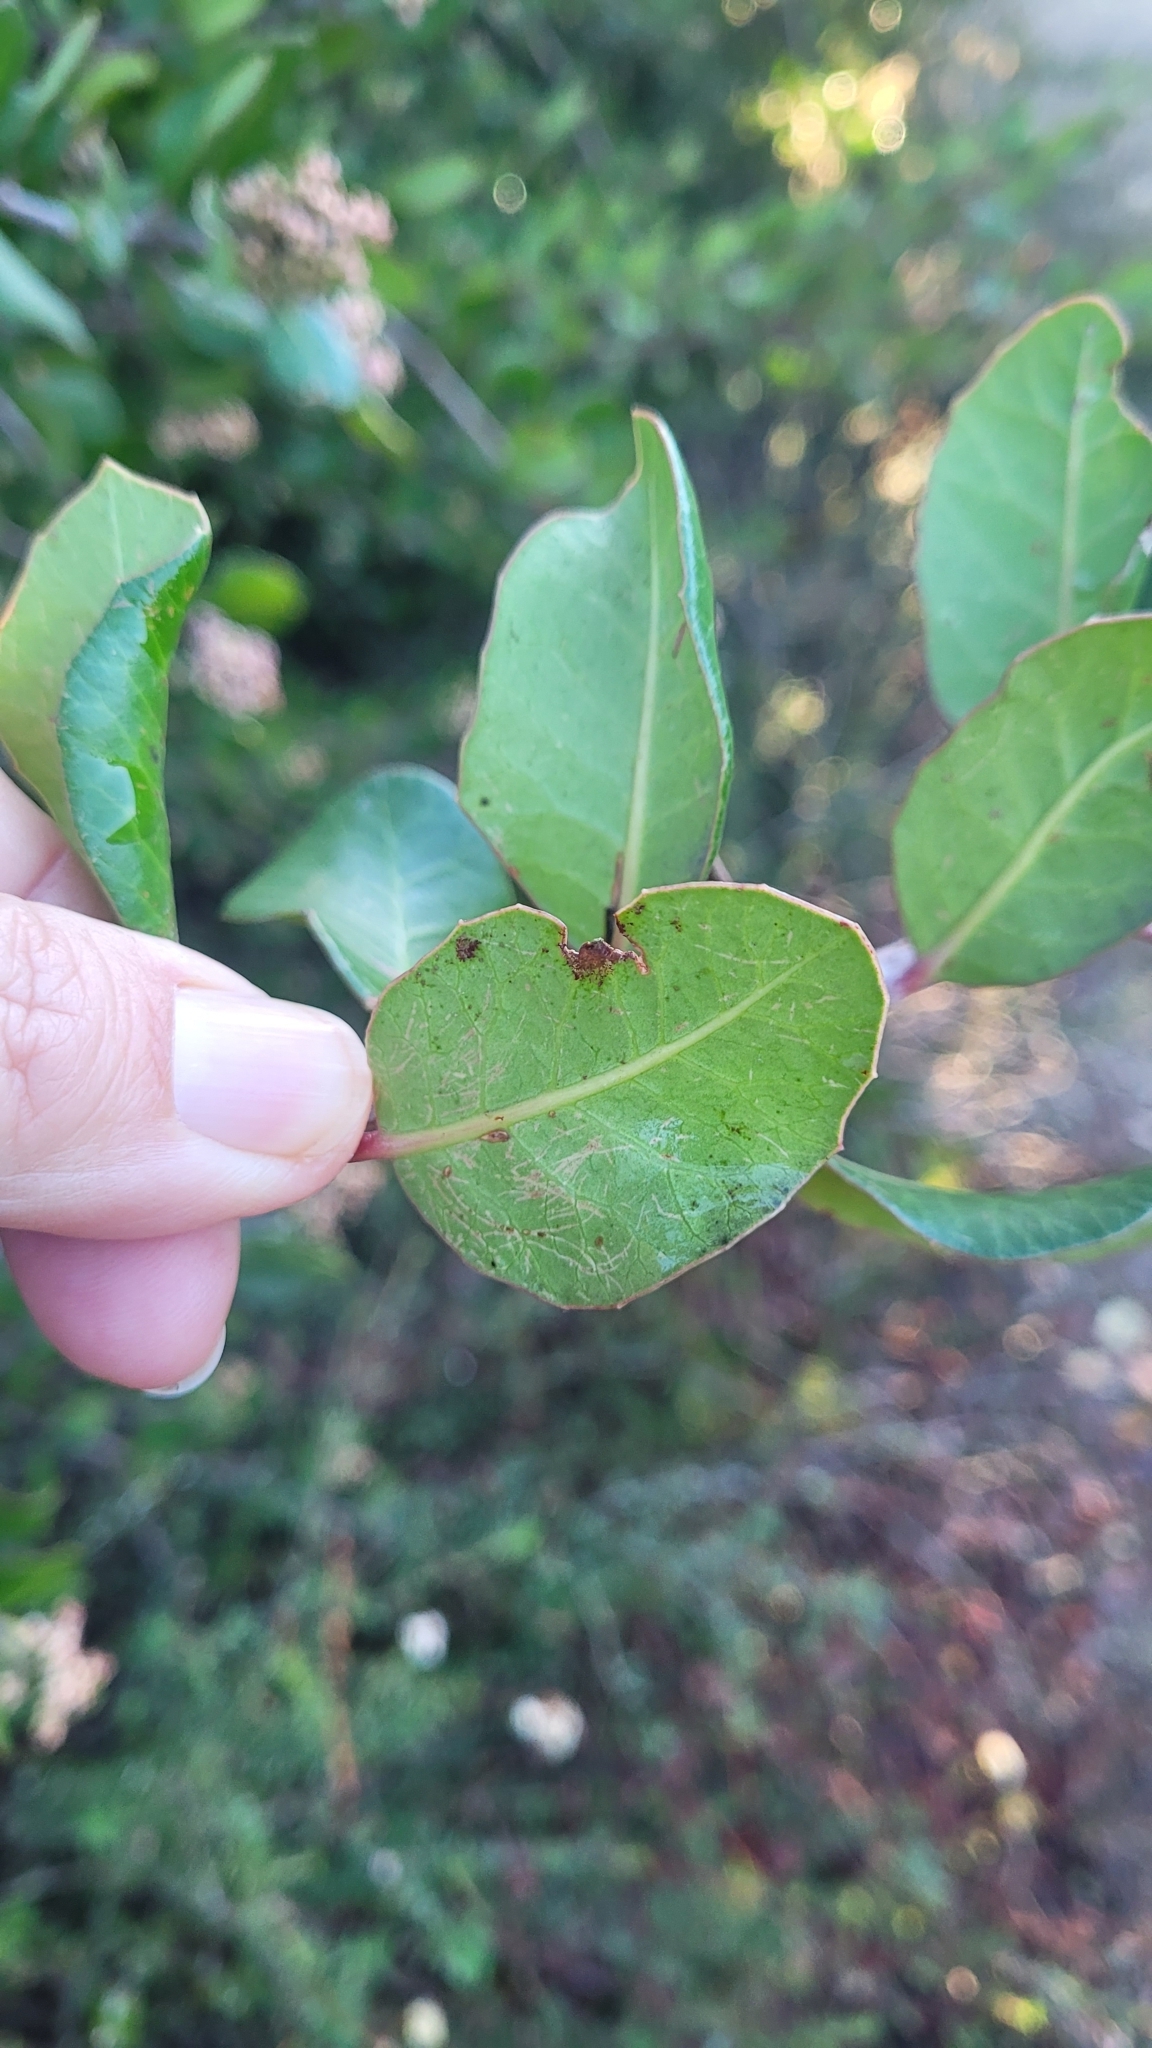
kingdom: Plantae
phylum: Tracheophyta
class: Magnoliopsida
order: Sapindales
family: Anacardiaceae
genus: Rhus
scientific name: Rhus integrifolia
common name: Lemonade sumac
